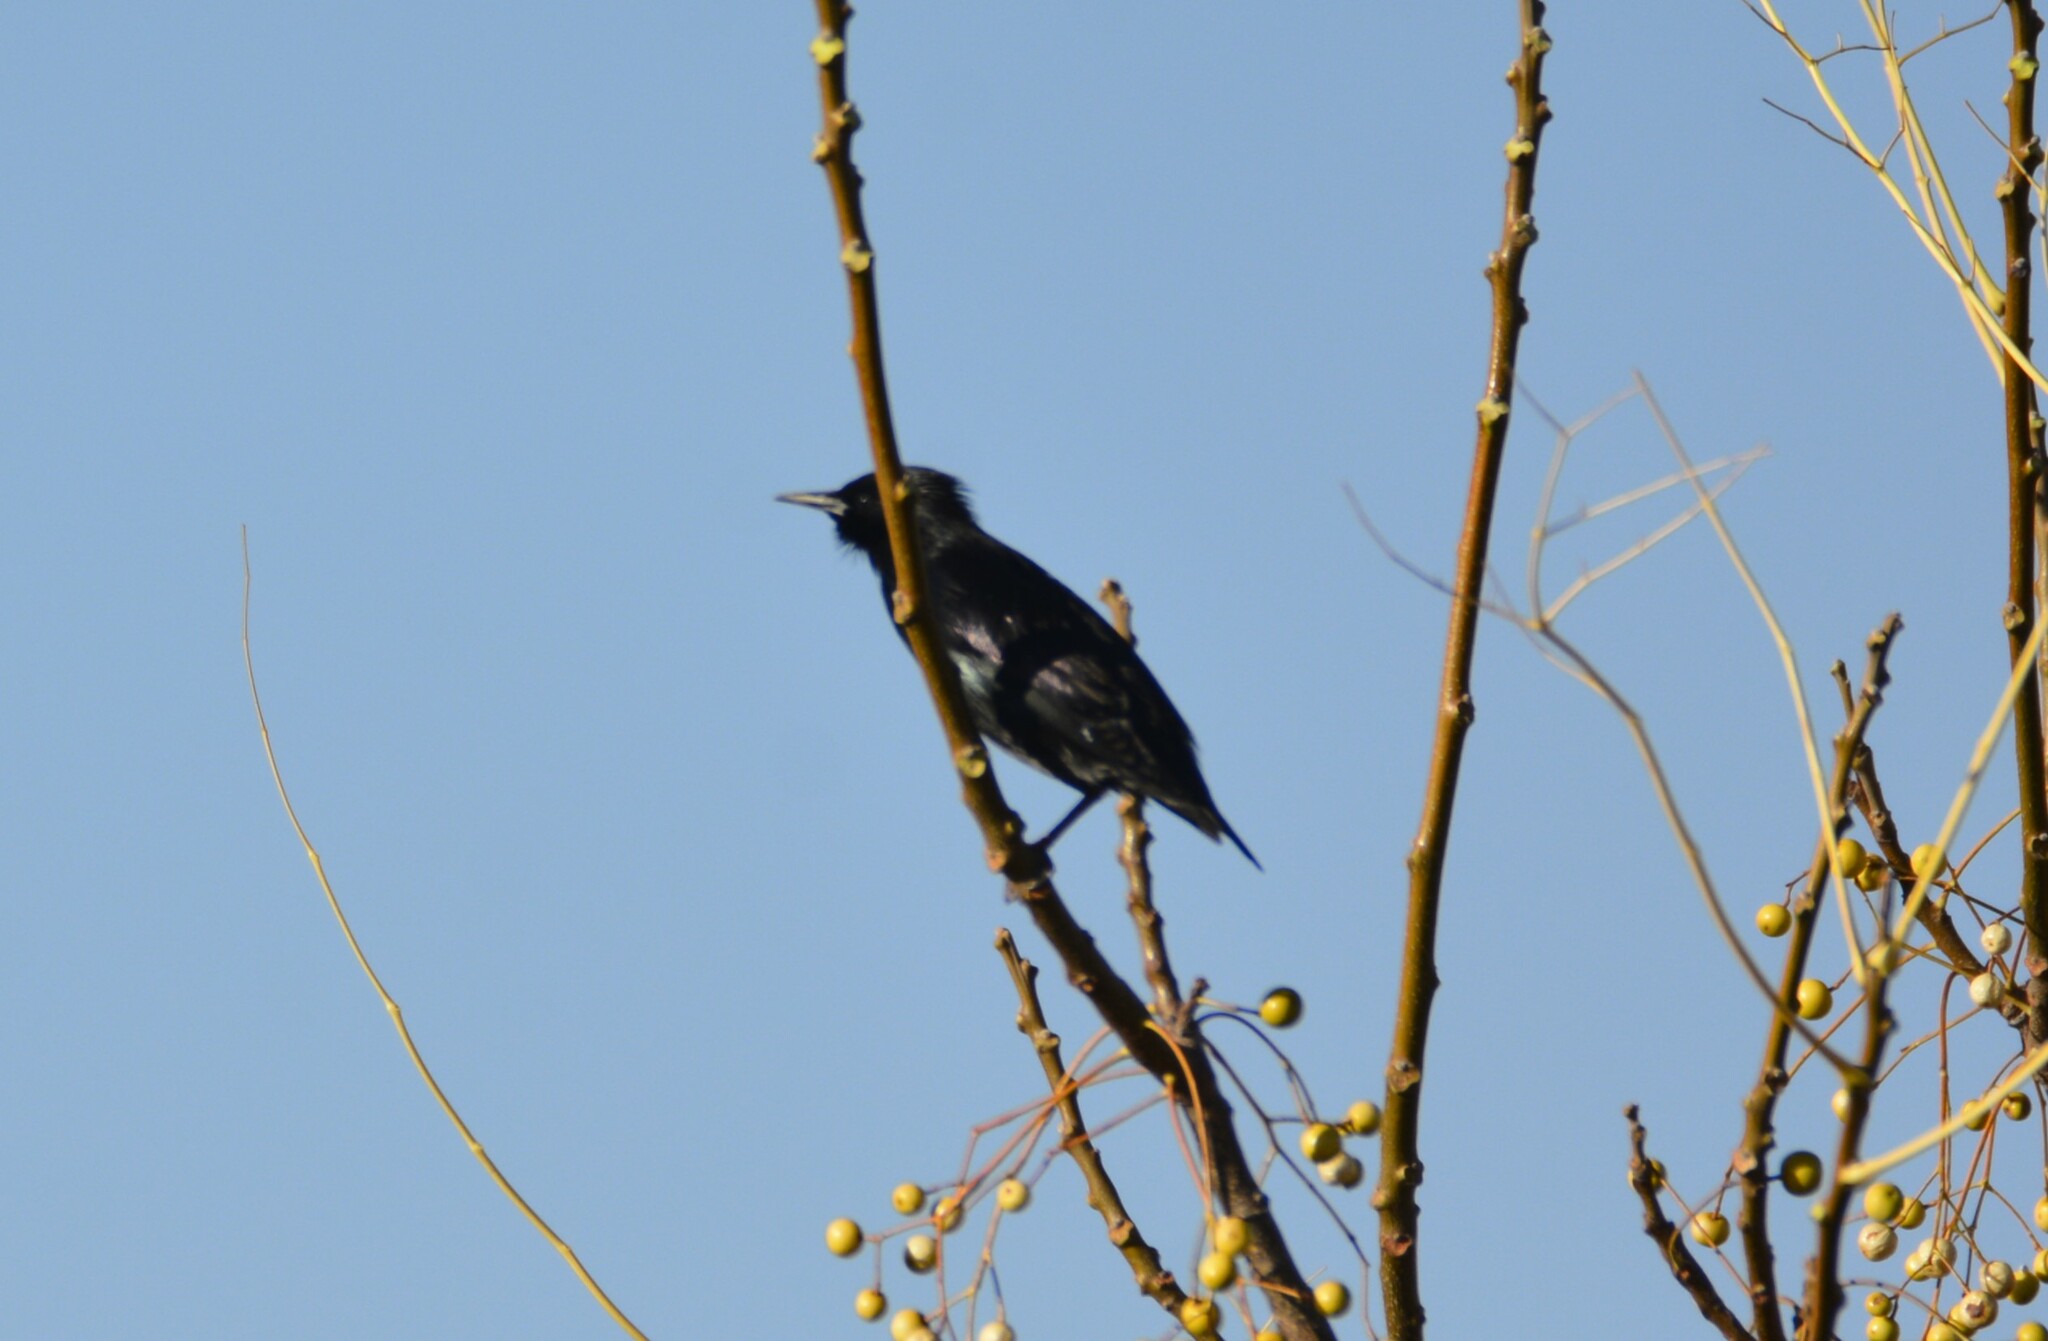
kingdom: Animalia
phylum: Chordata
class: Aves
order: Passeriformes
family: Sturnidae
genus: Sturnus
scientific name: Sturnus unicolor
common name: Spotless starling
